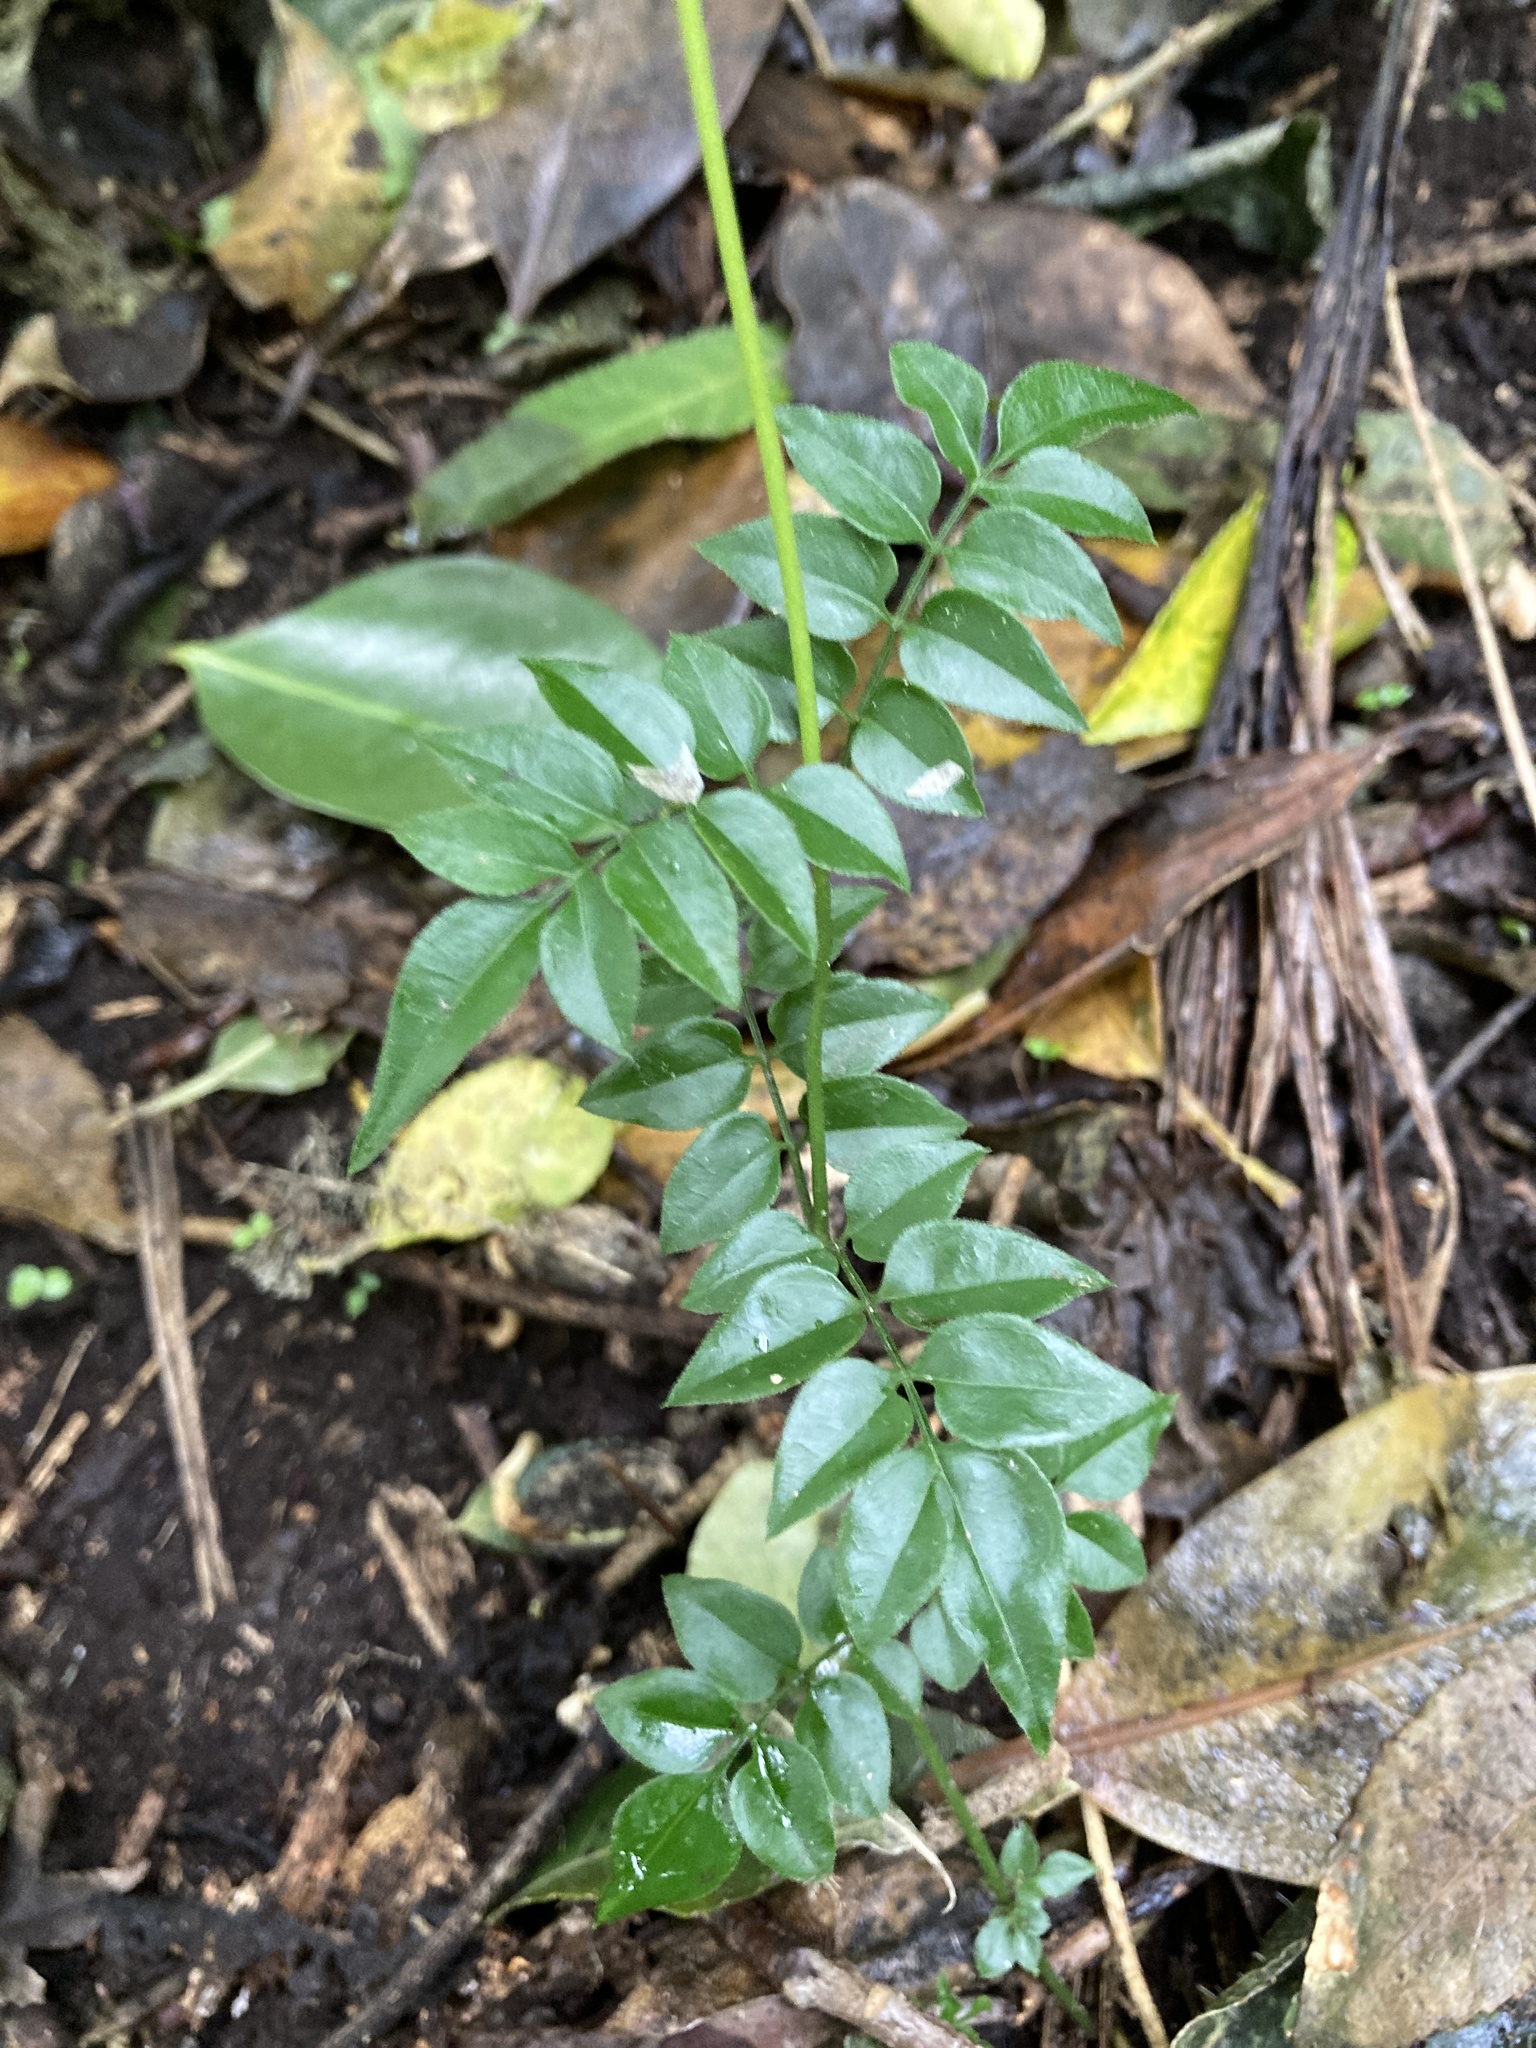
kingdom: Plantae
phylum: Tracheophyta
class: Magnoliopsida
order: Lamiales
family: Oleaceae
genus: Jasminum
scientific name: Jasminum polyanthum
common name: Pink jasmine
